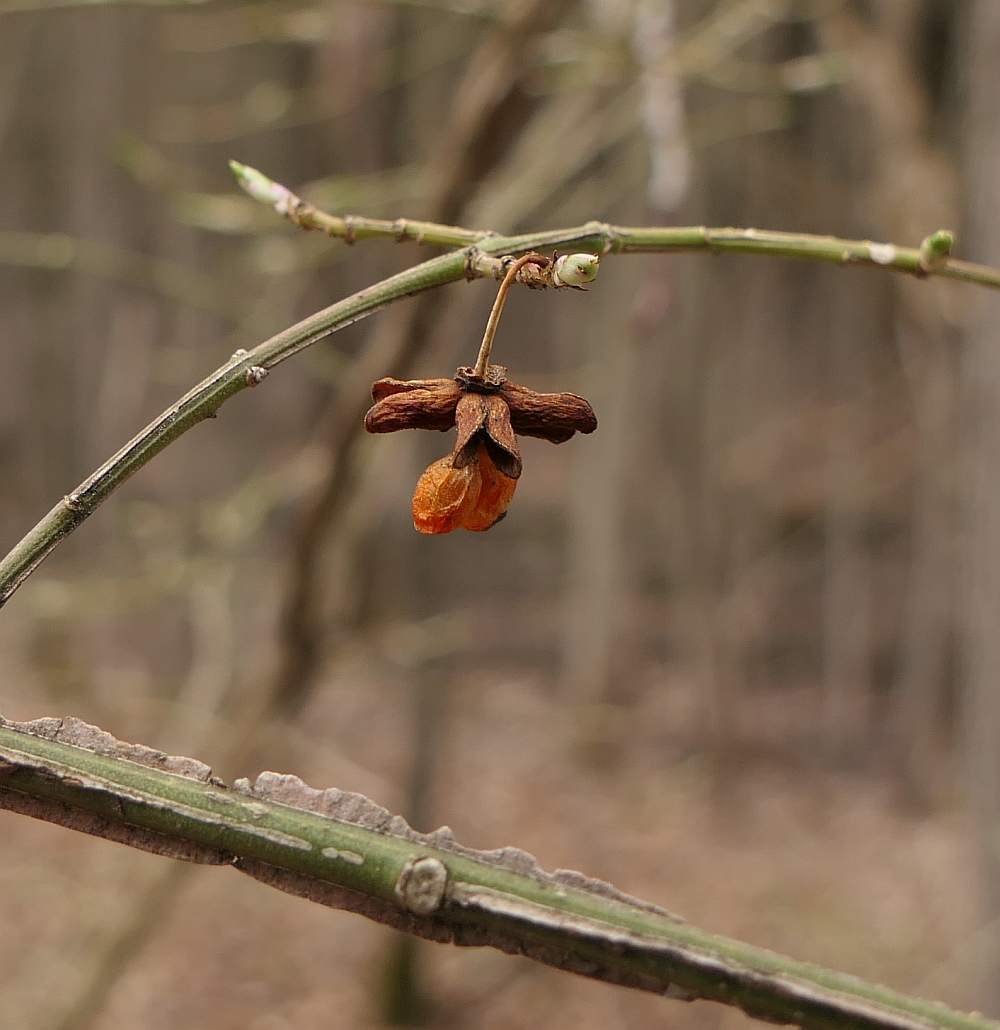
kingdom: Plantae
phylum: Tracheophyta
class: Magnoliopsida
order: Celastrales
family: Celastraceae
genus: Euonymus
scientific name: Euonymus alatus
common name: Winged euonymus
